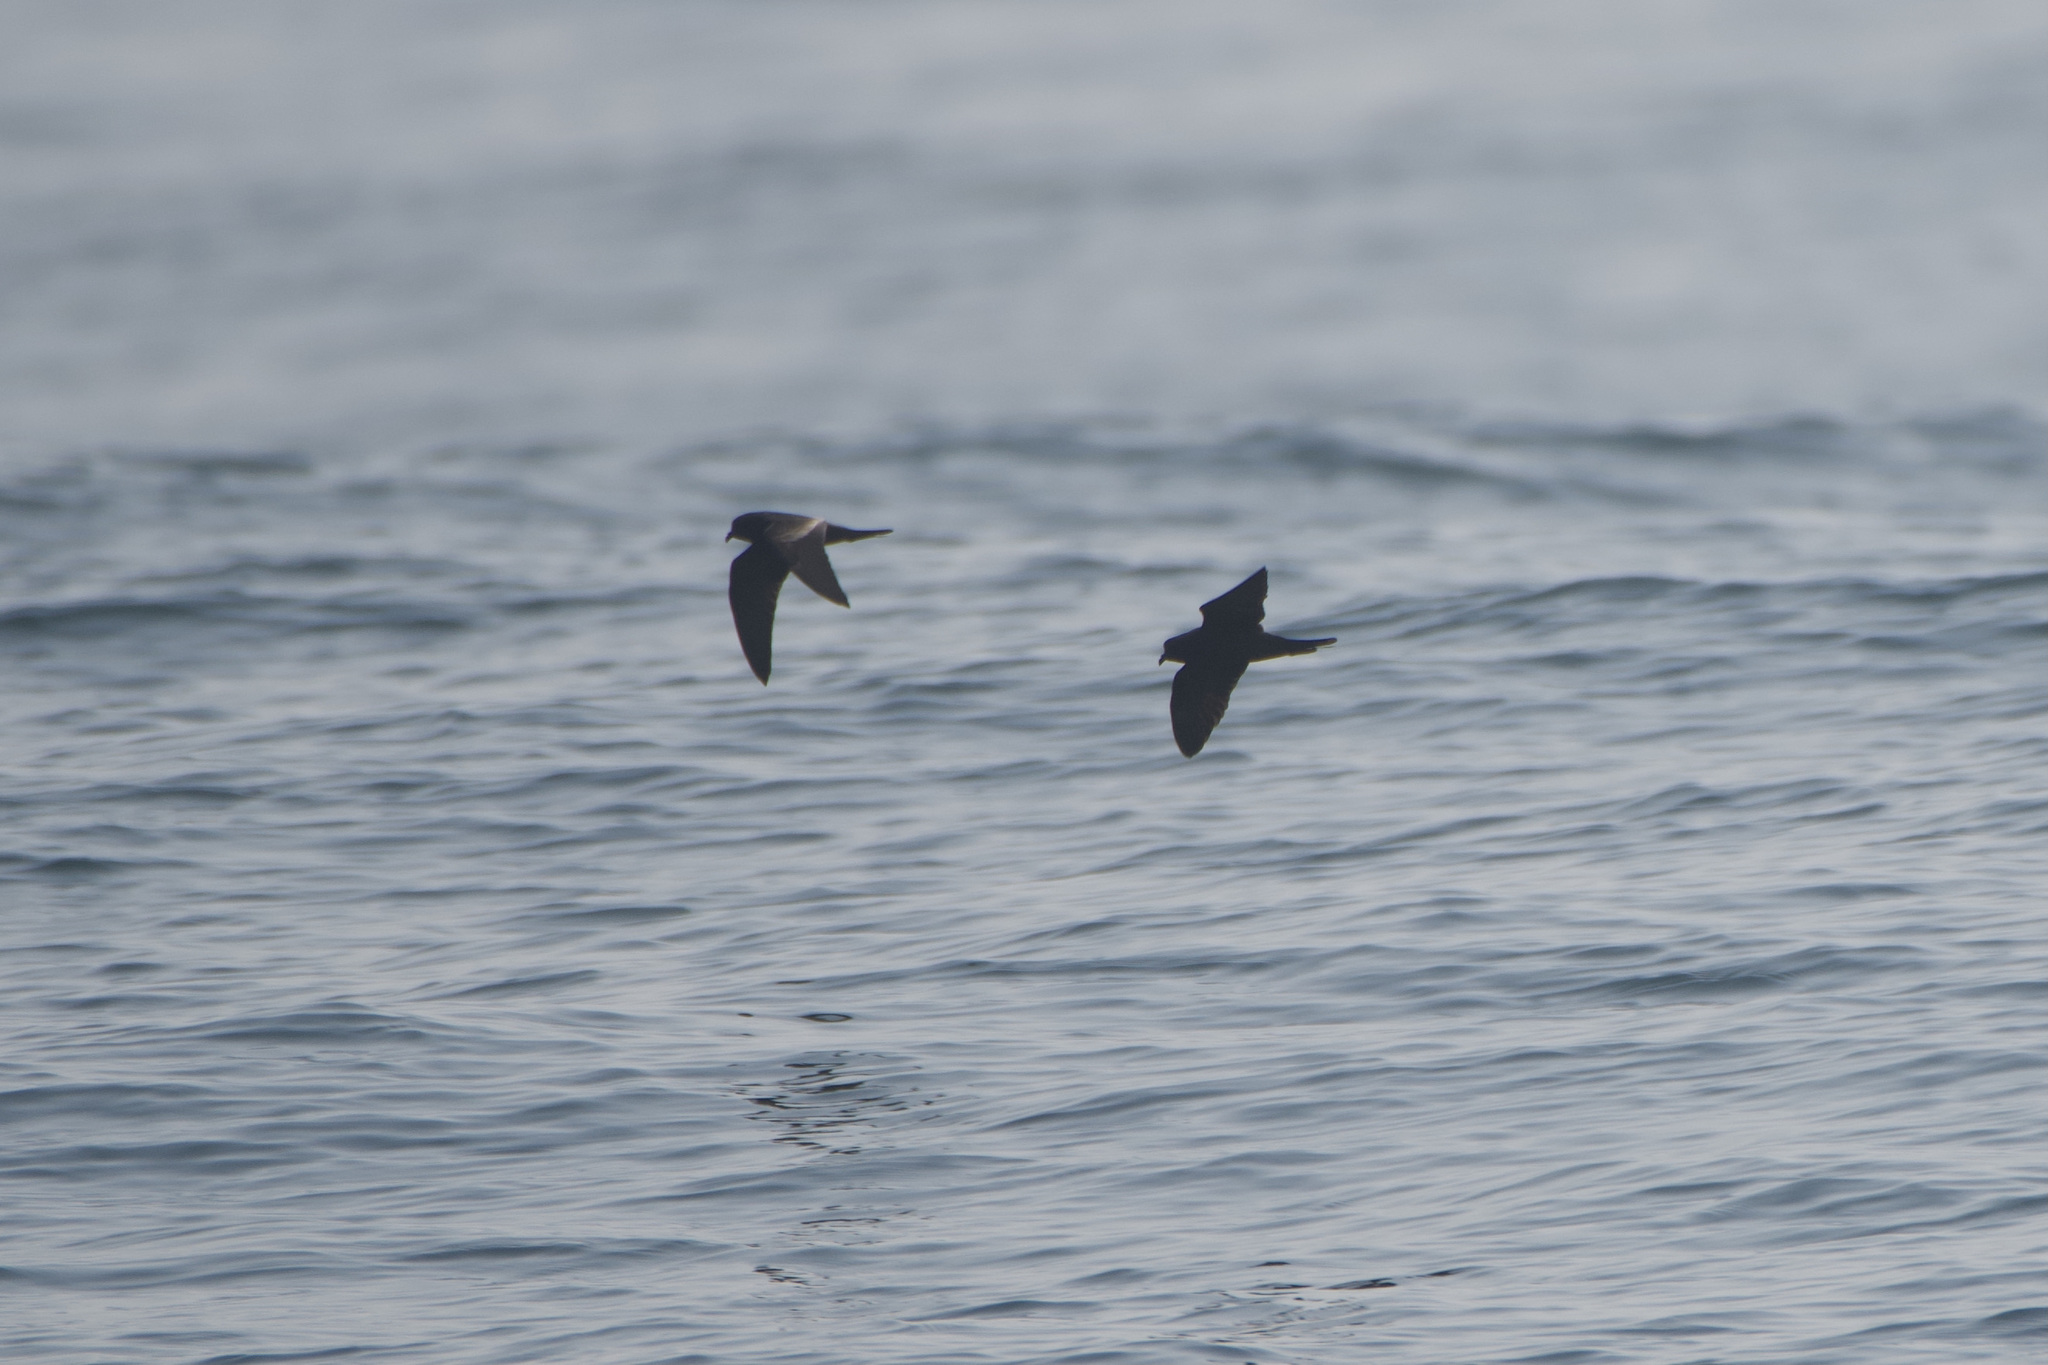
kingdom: Animalia
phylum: Chordata
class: Aves
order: Procellariiformes
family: Hydrobatidae
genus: Hydrobates
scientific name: Hydrobates melania
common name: Black storm petrel
